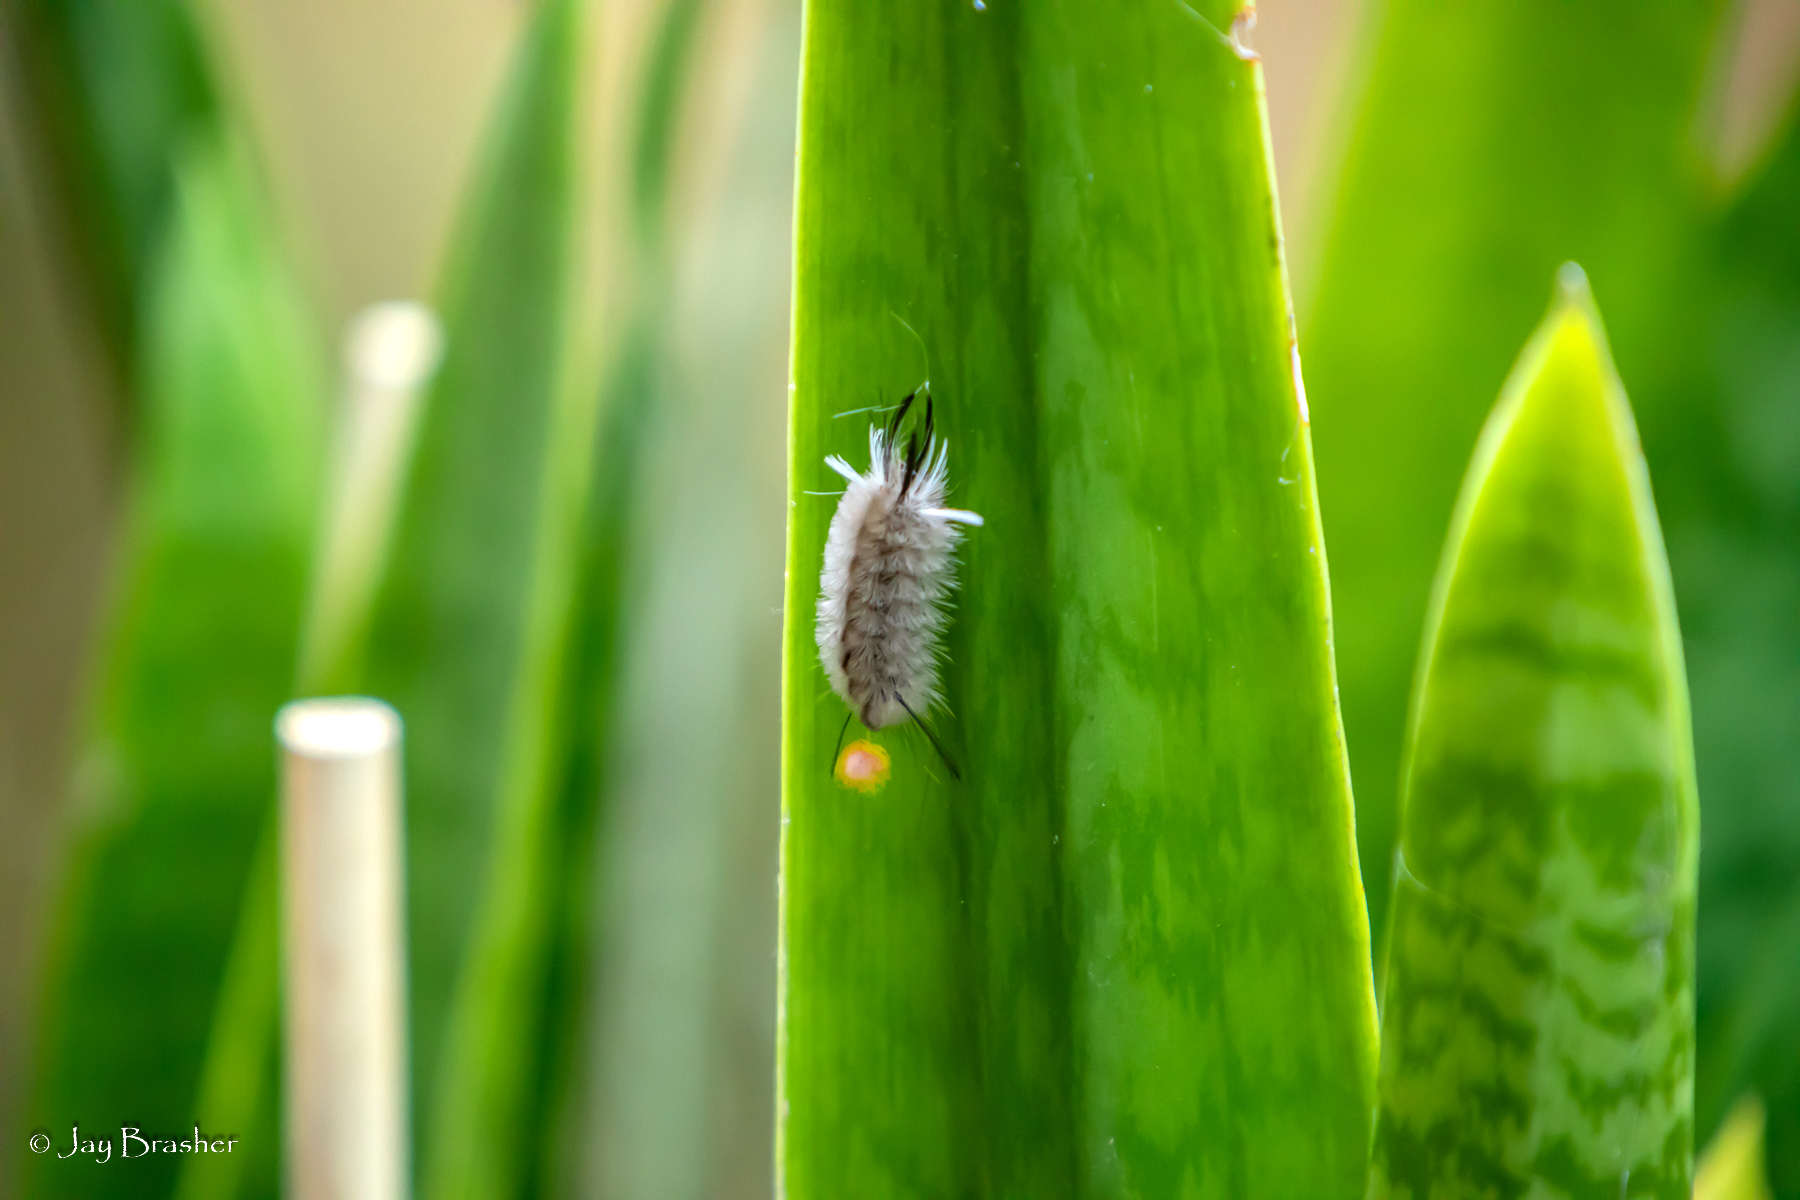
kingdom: Animalia
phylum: Arthropoda
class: Insecta
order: Lepidoptera
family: Erebidae
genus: Halysidota
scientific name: Halysidota tessellaris
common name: Banded tussock moth
